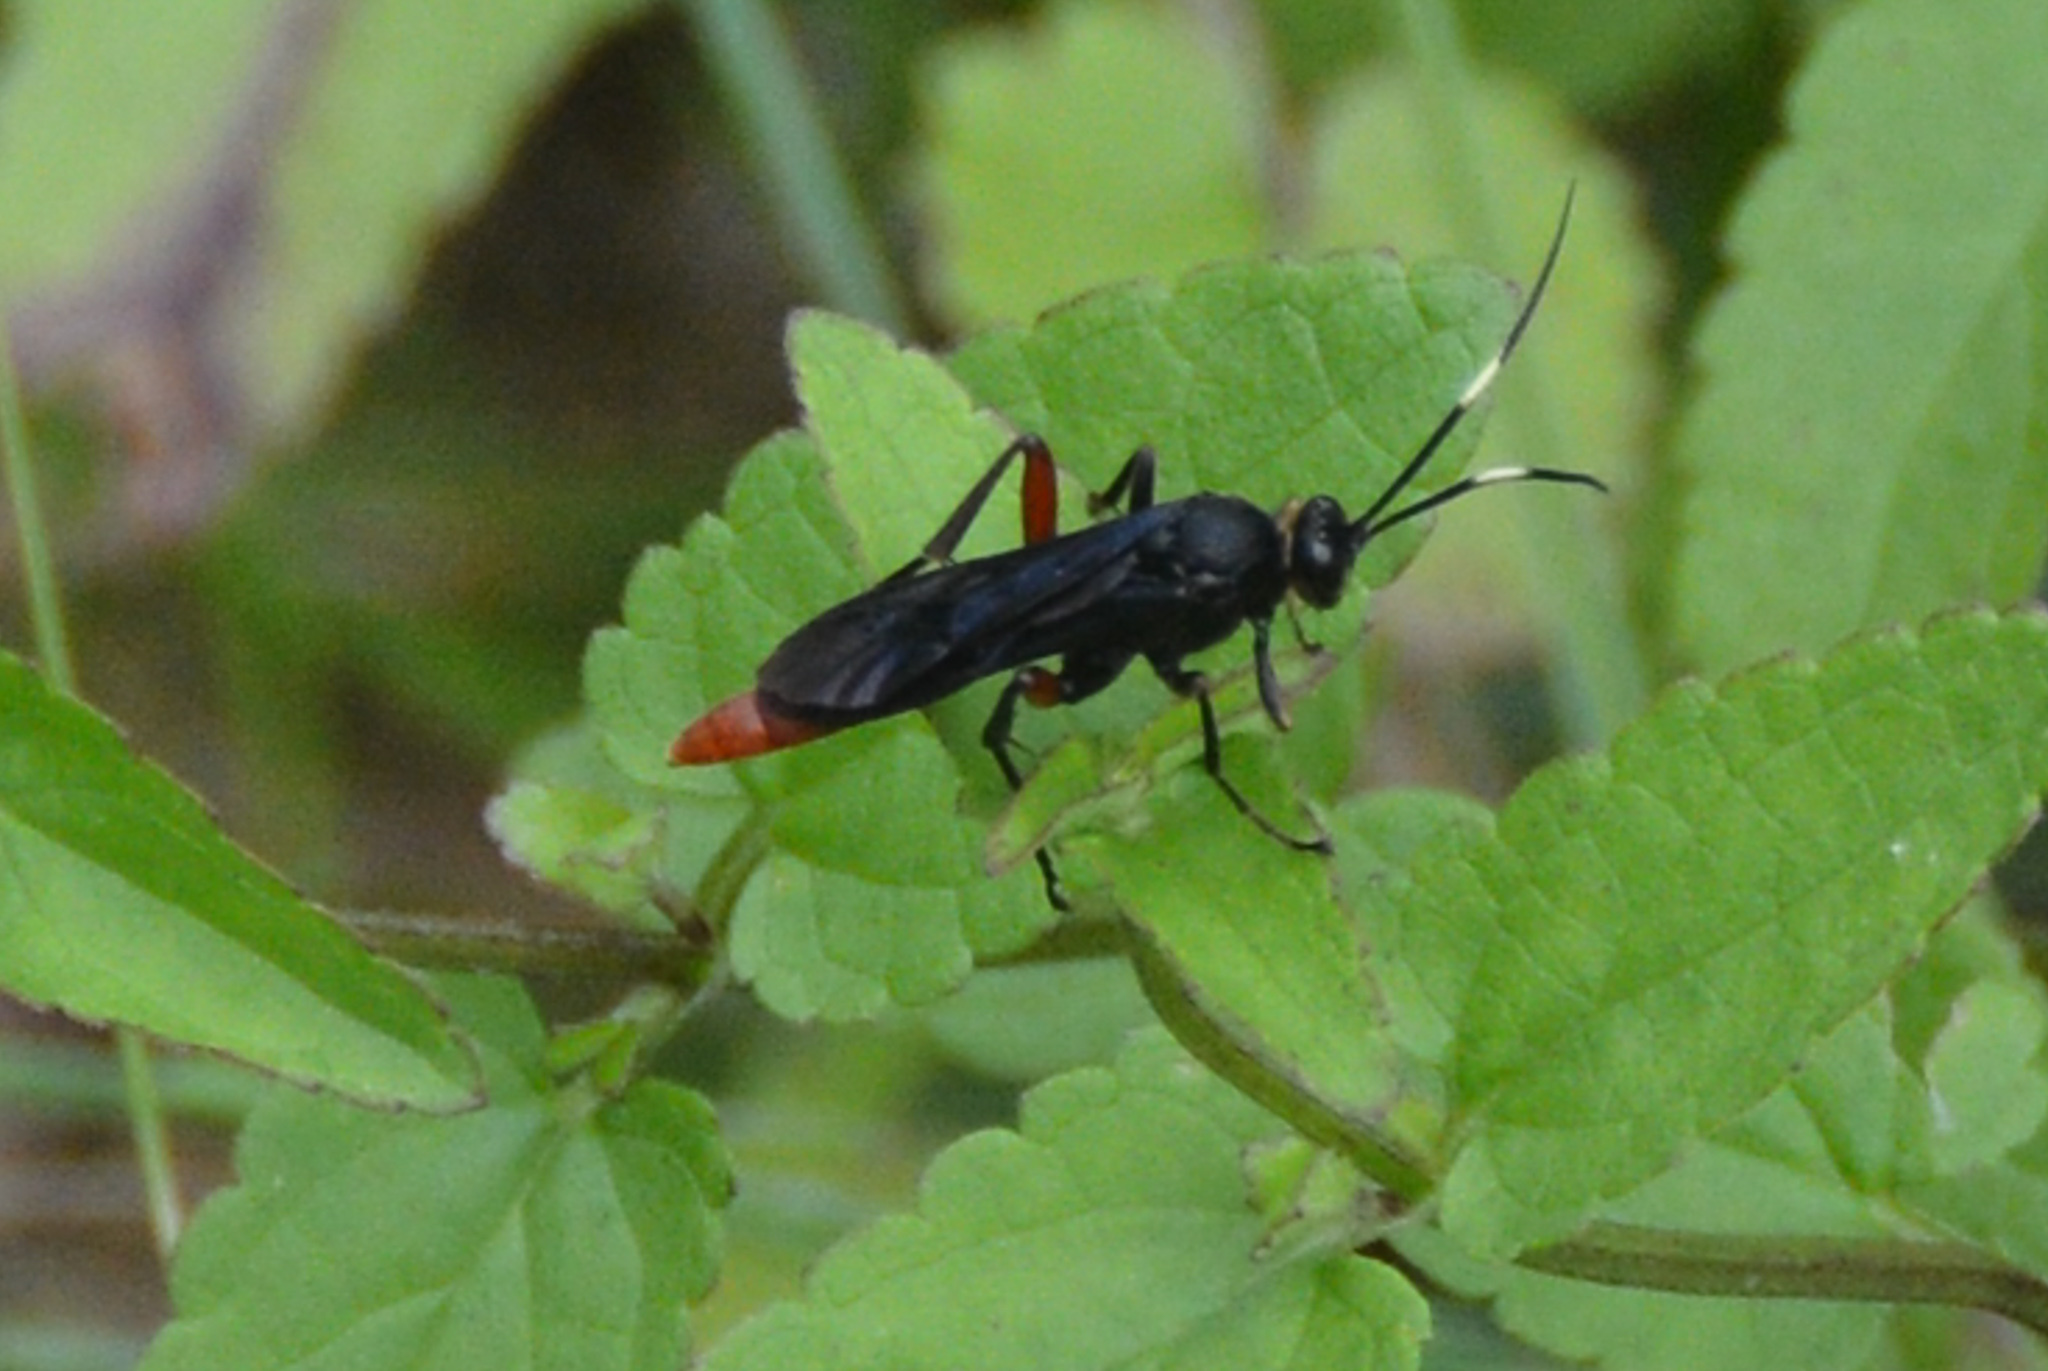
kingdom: Animalia
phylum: Arthropoda
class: Insecta
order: Hymenoptera
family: Ichneumonidae
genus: Limonethe
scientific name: Limonethe maurator
